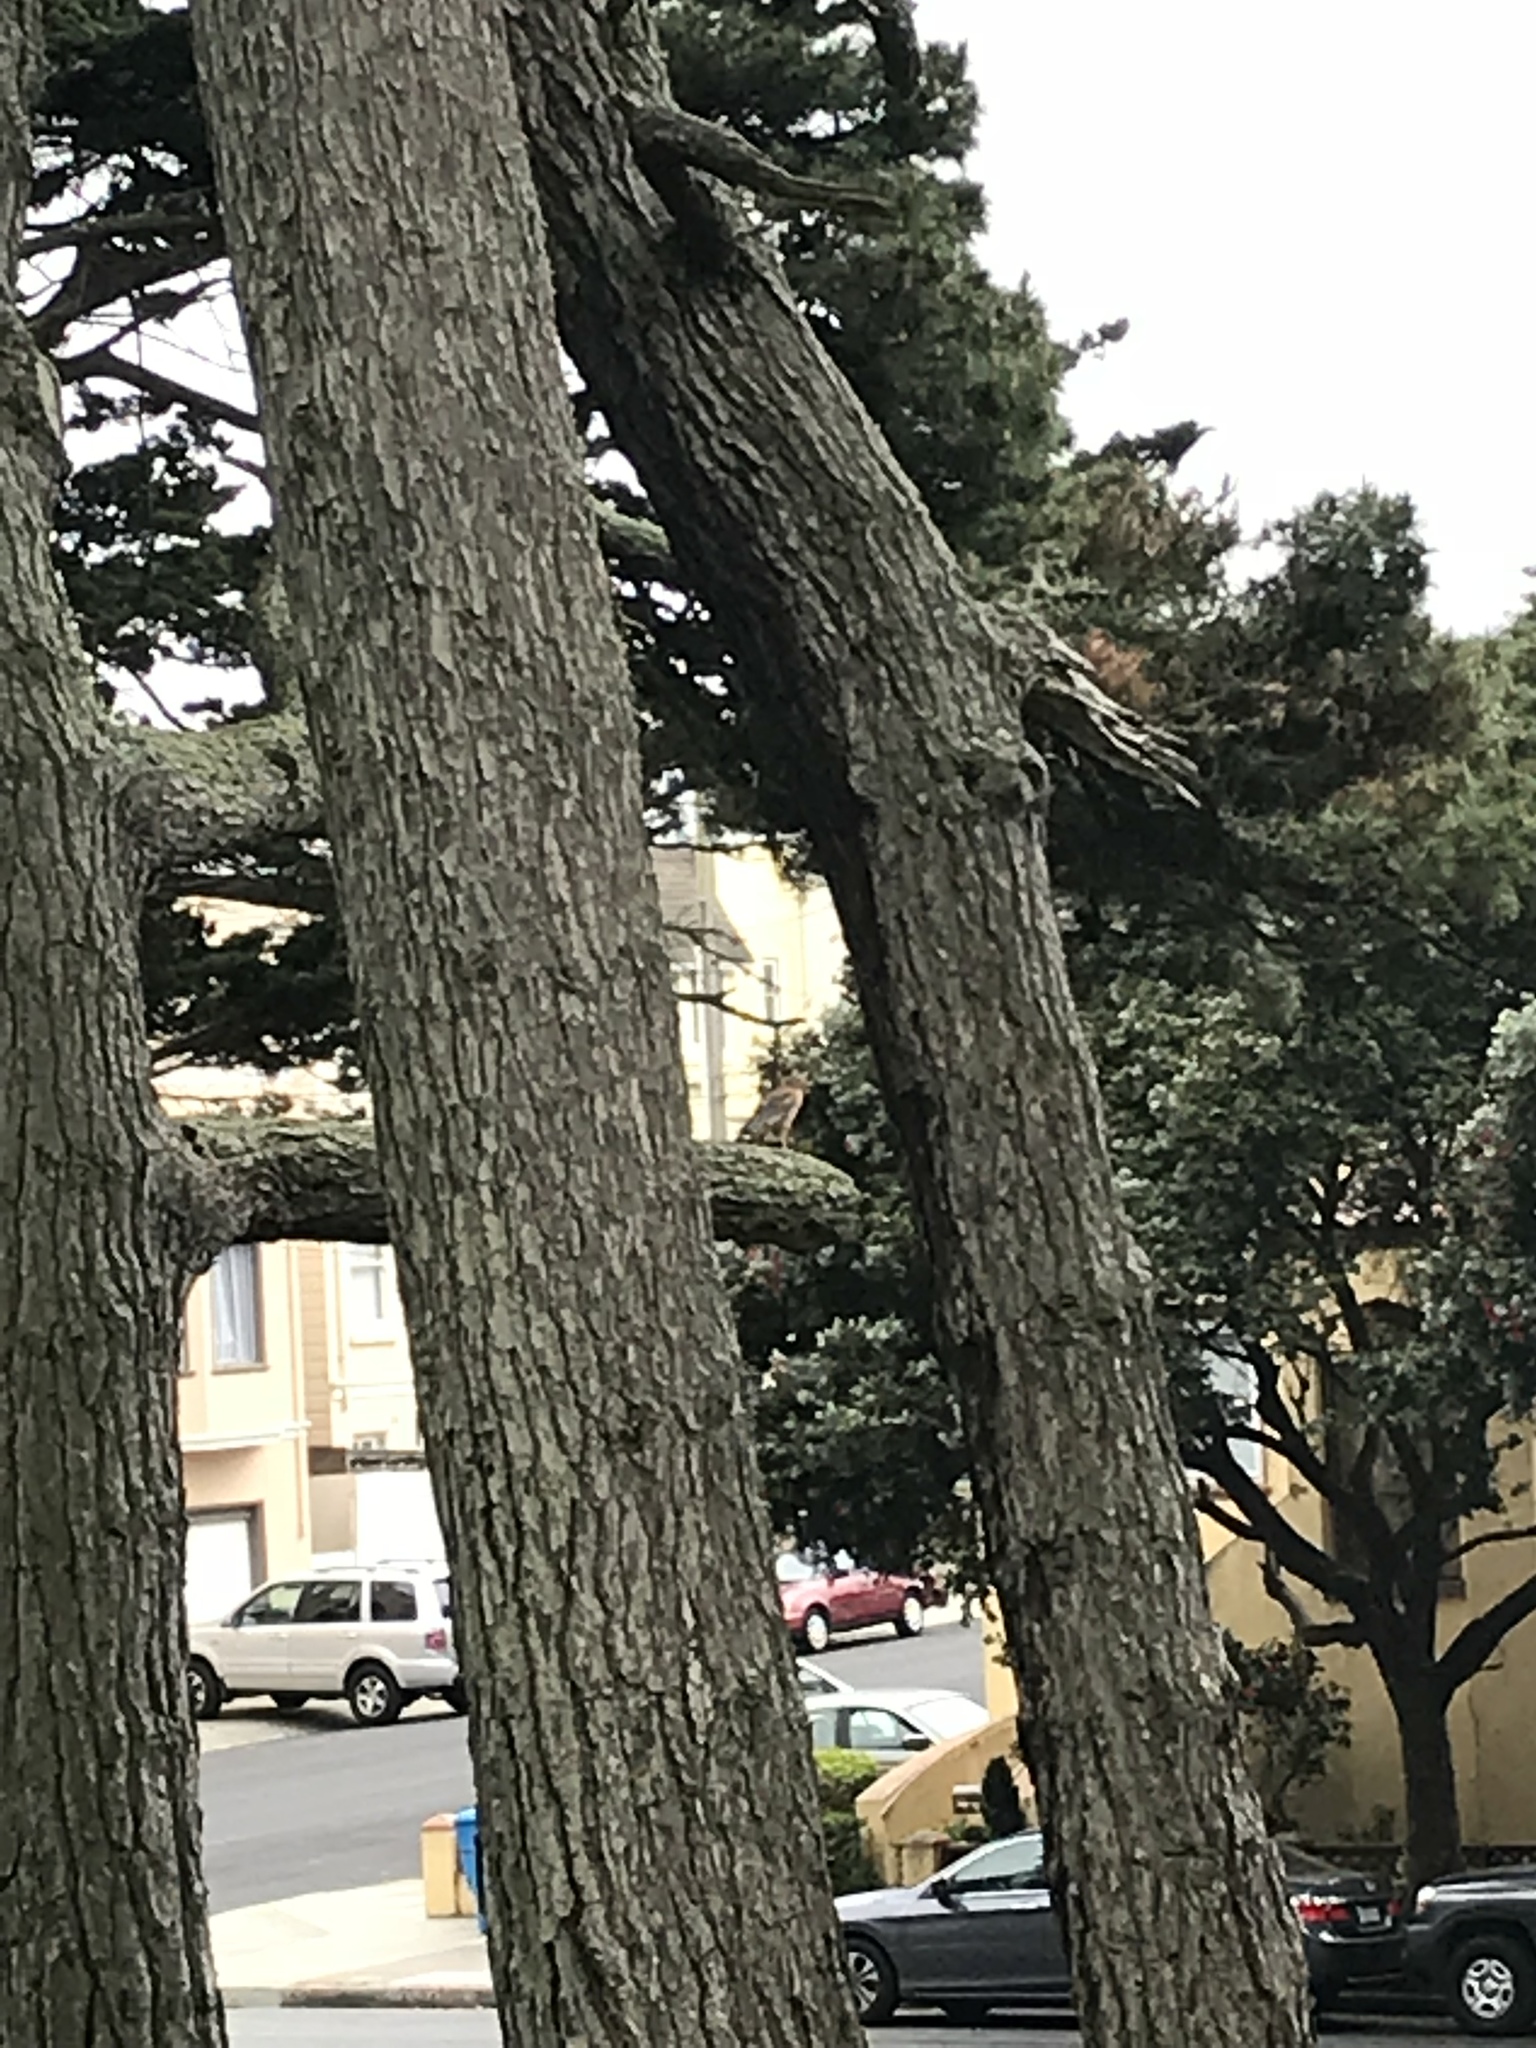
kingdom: Animalia
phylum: Chordata
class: Aves
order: Accipitriformes
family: Accipitridae
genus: Buteo
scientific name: Buteo lineatus
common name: Red-shouldered hawk
